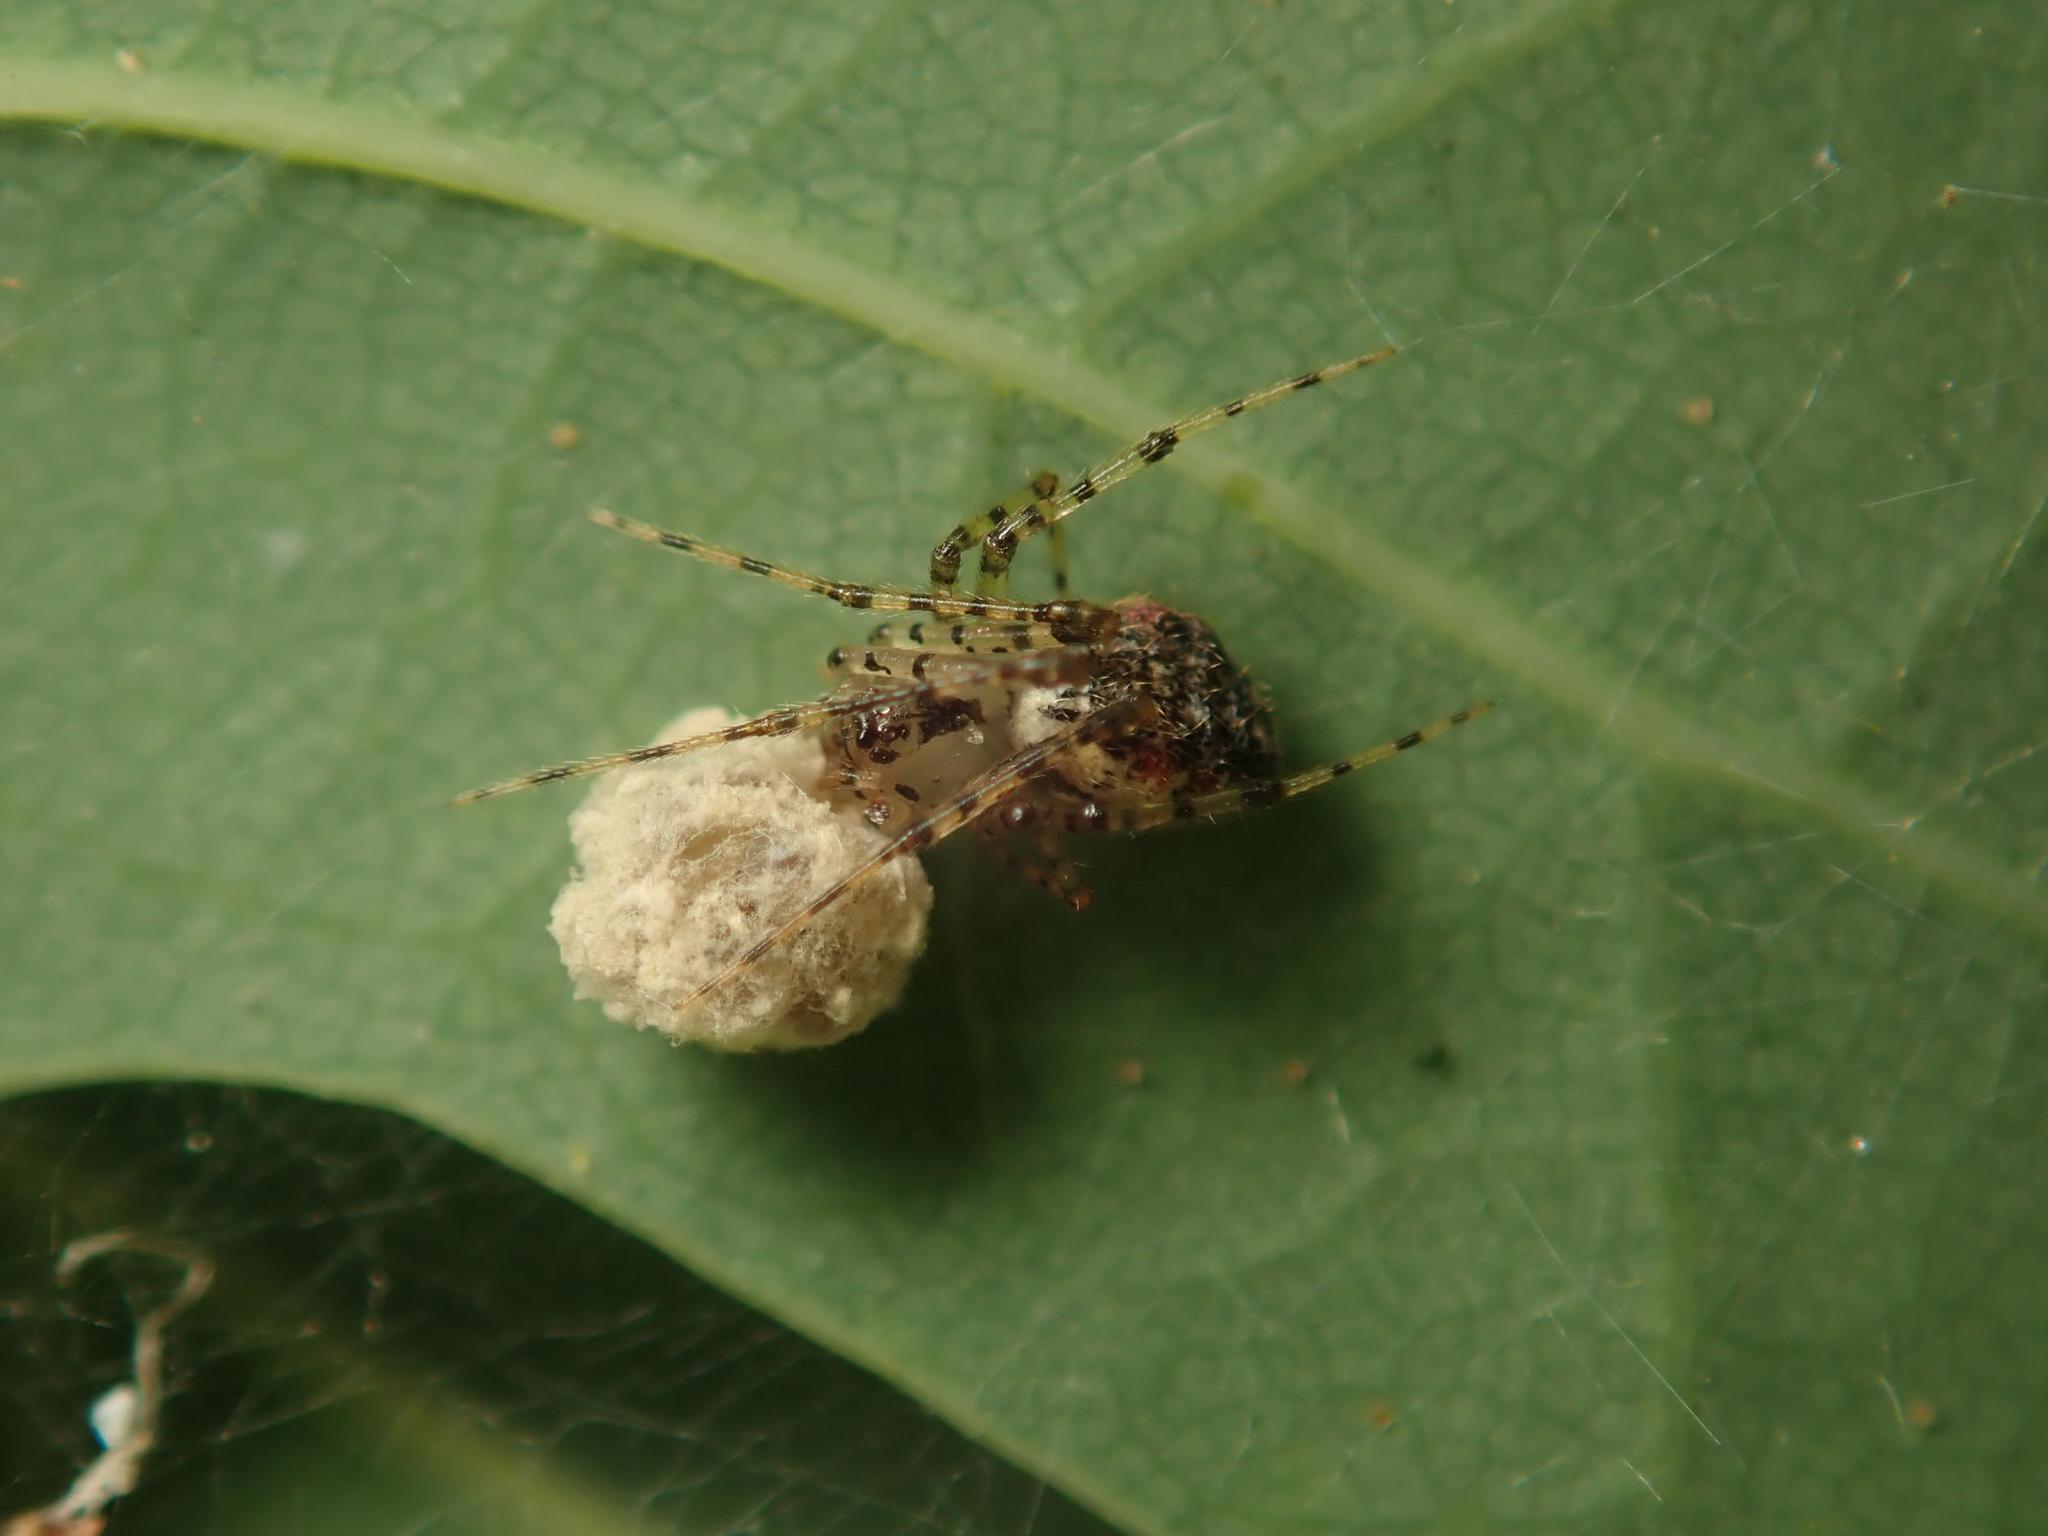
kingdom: Animalia
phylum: Arthropoda
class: Arachnida
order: Araneae
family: Theridiidae
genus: Platnickina
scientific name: Platnickina tincta
